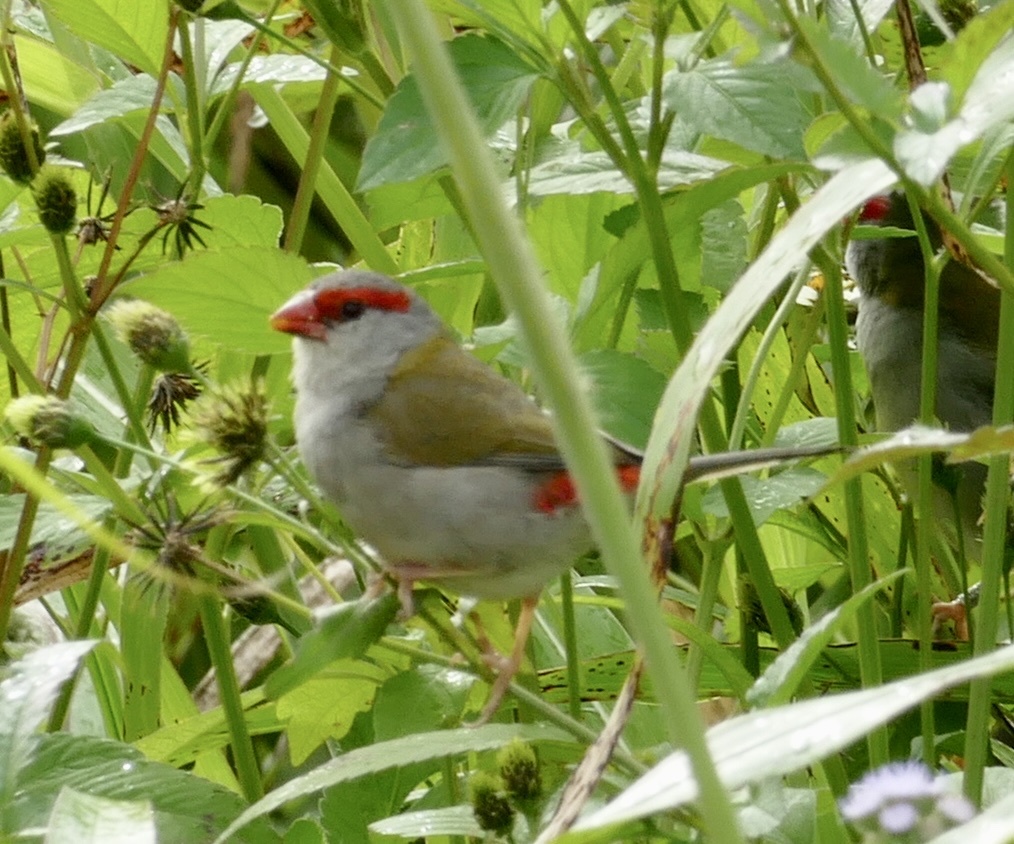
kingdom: Animalia
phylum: Chordata
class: Aves
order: Passeriformes
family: Estrildidae
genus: Neochmia
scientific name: Neochmia temporalis
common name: Red-browed finch
